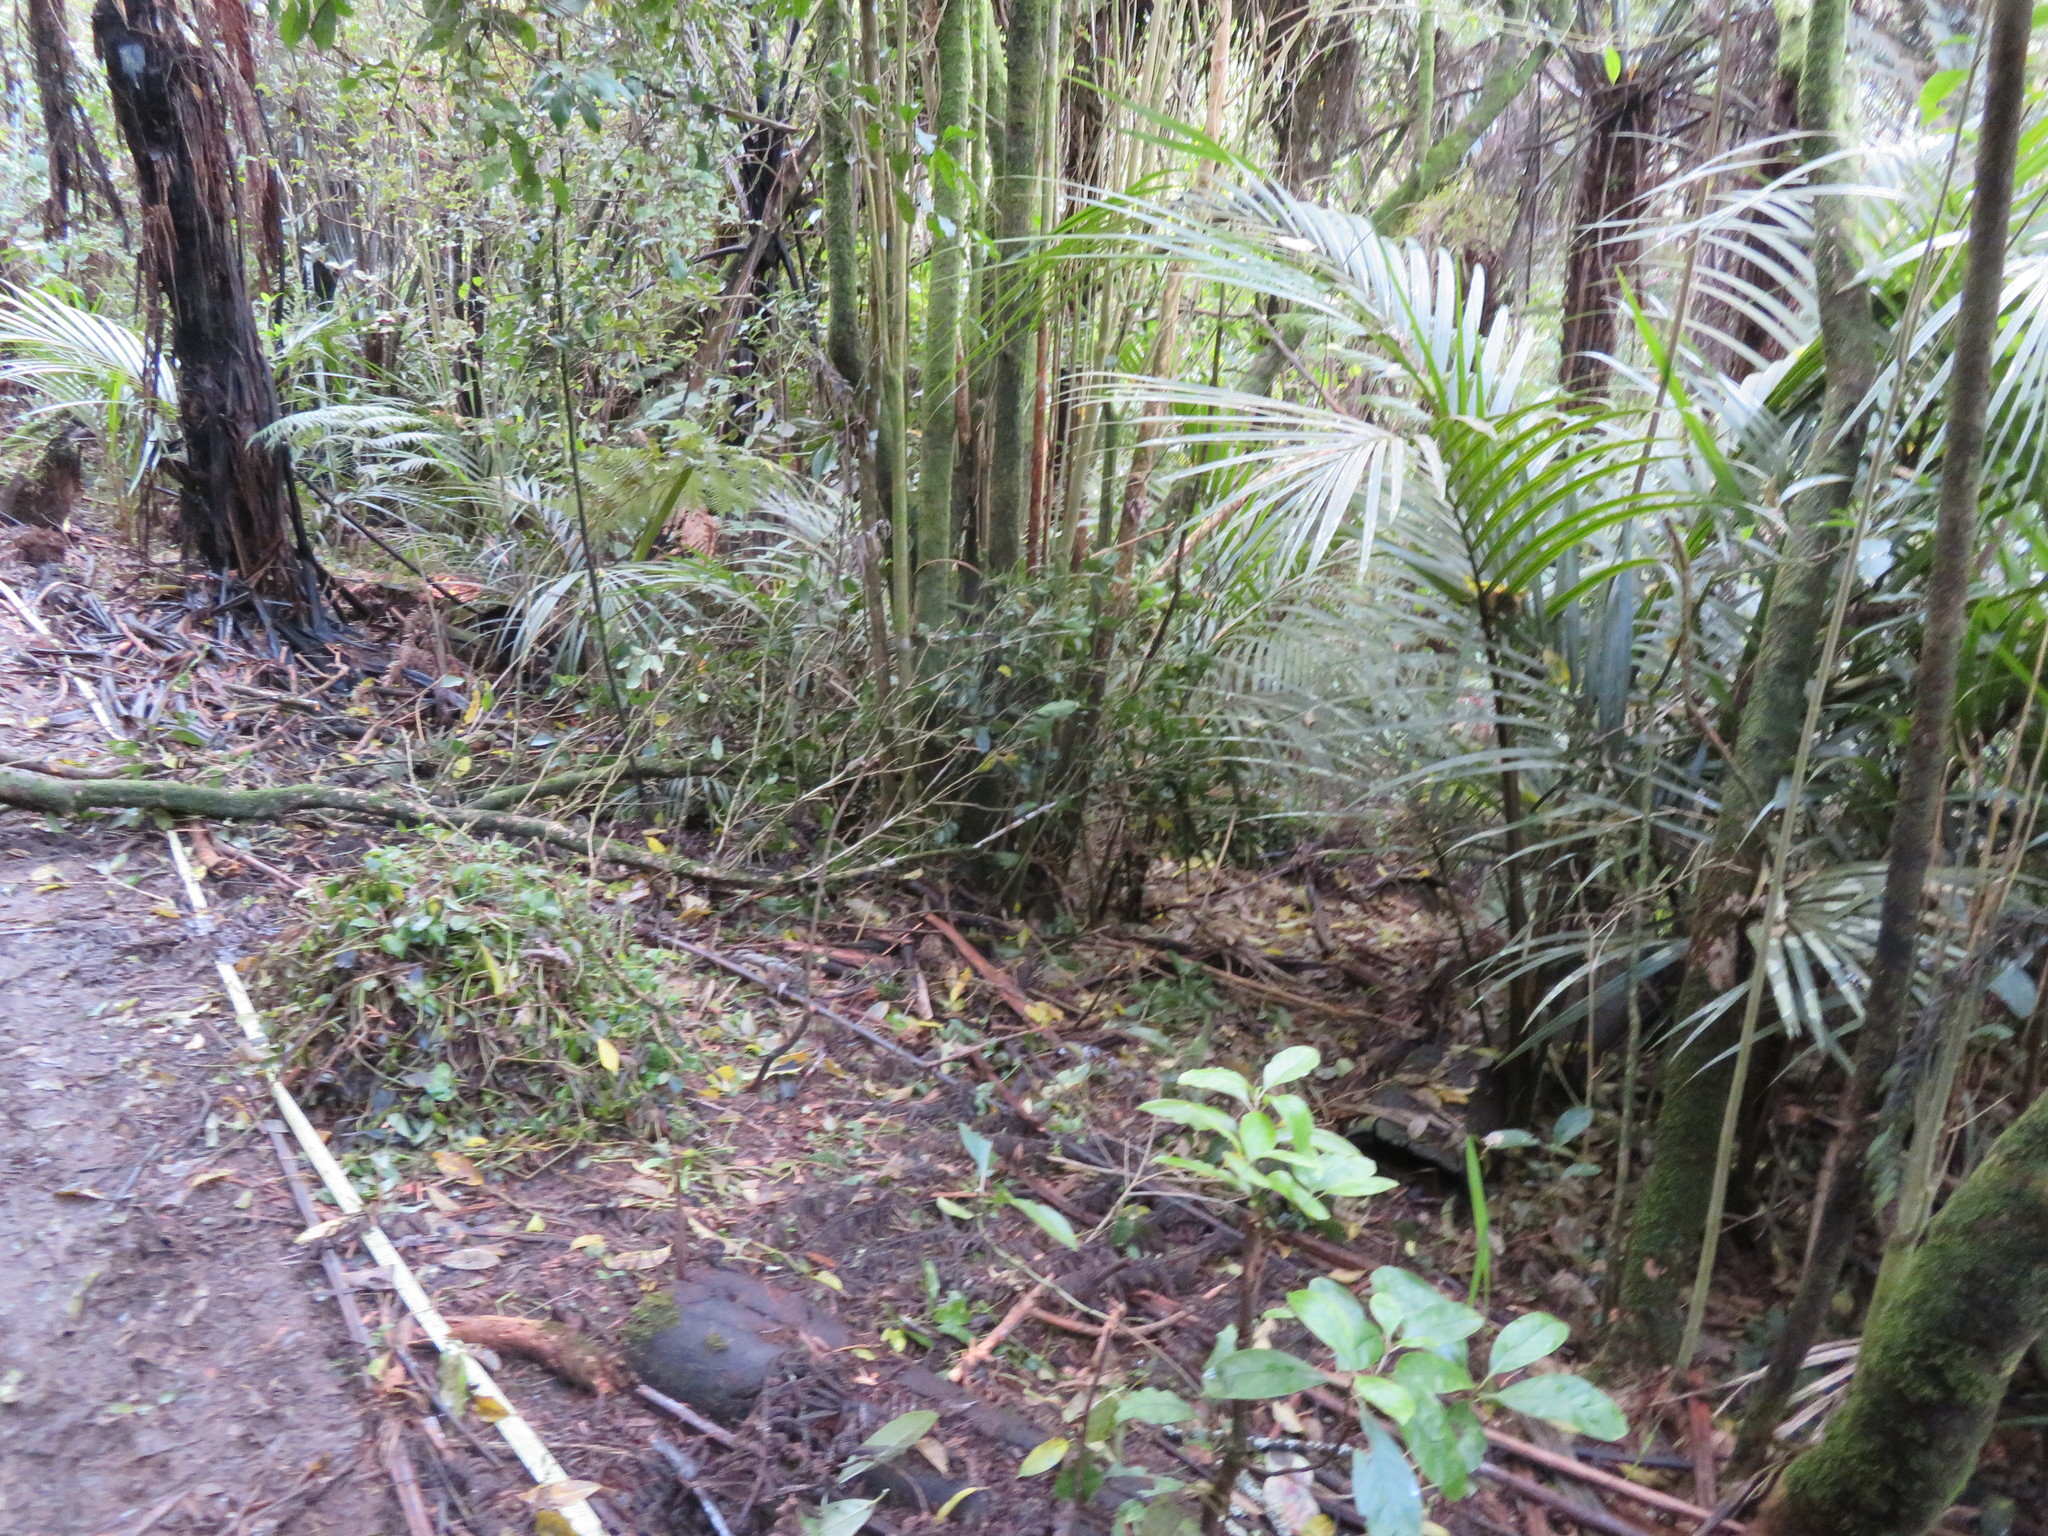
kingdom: Plantae
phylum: Tracheophyta
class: Liliopsida
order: Commelinales
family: Commelinaceae
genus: Tradescantia
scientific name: Tradescantia fluminensis
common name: Wandering-jew
